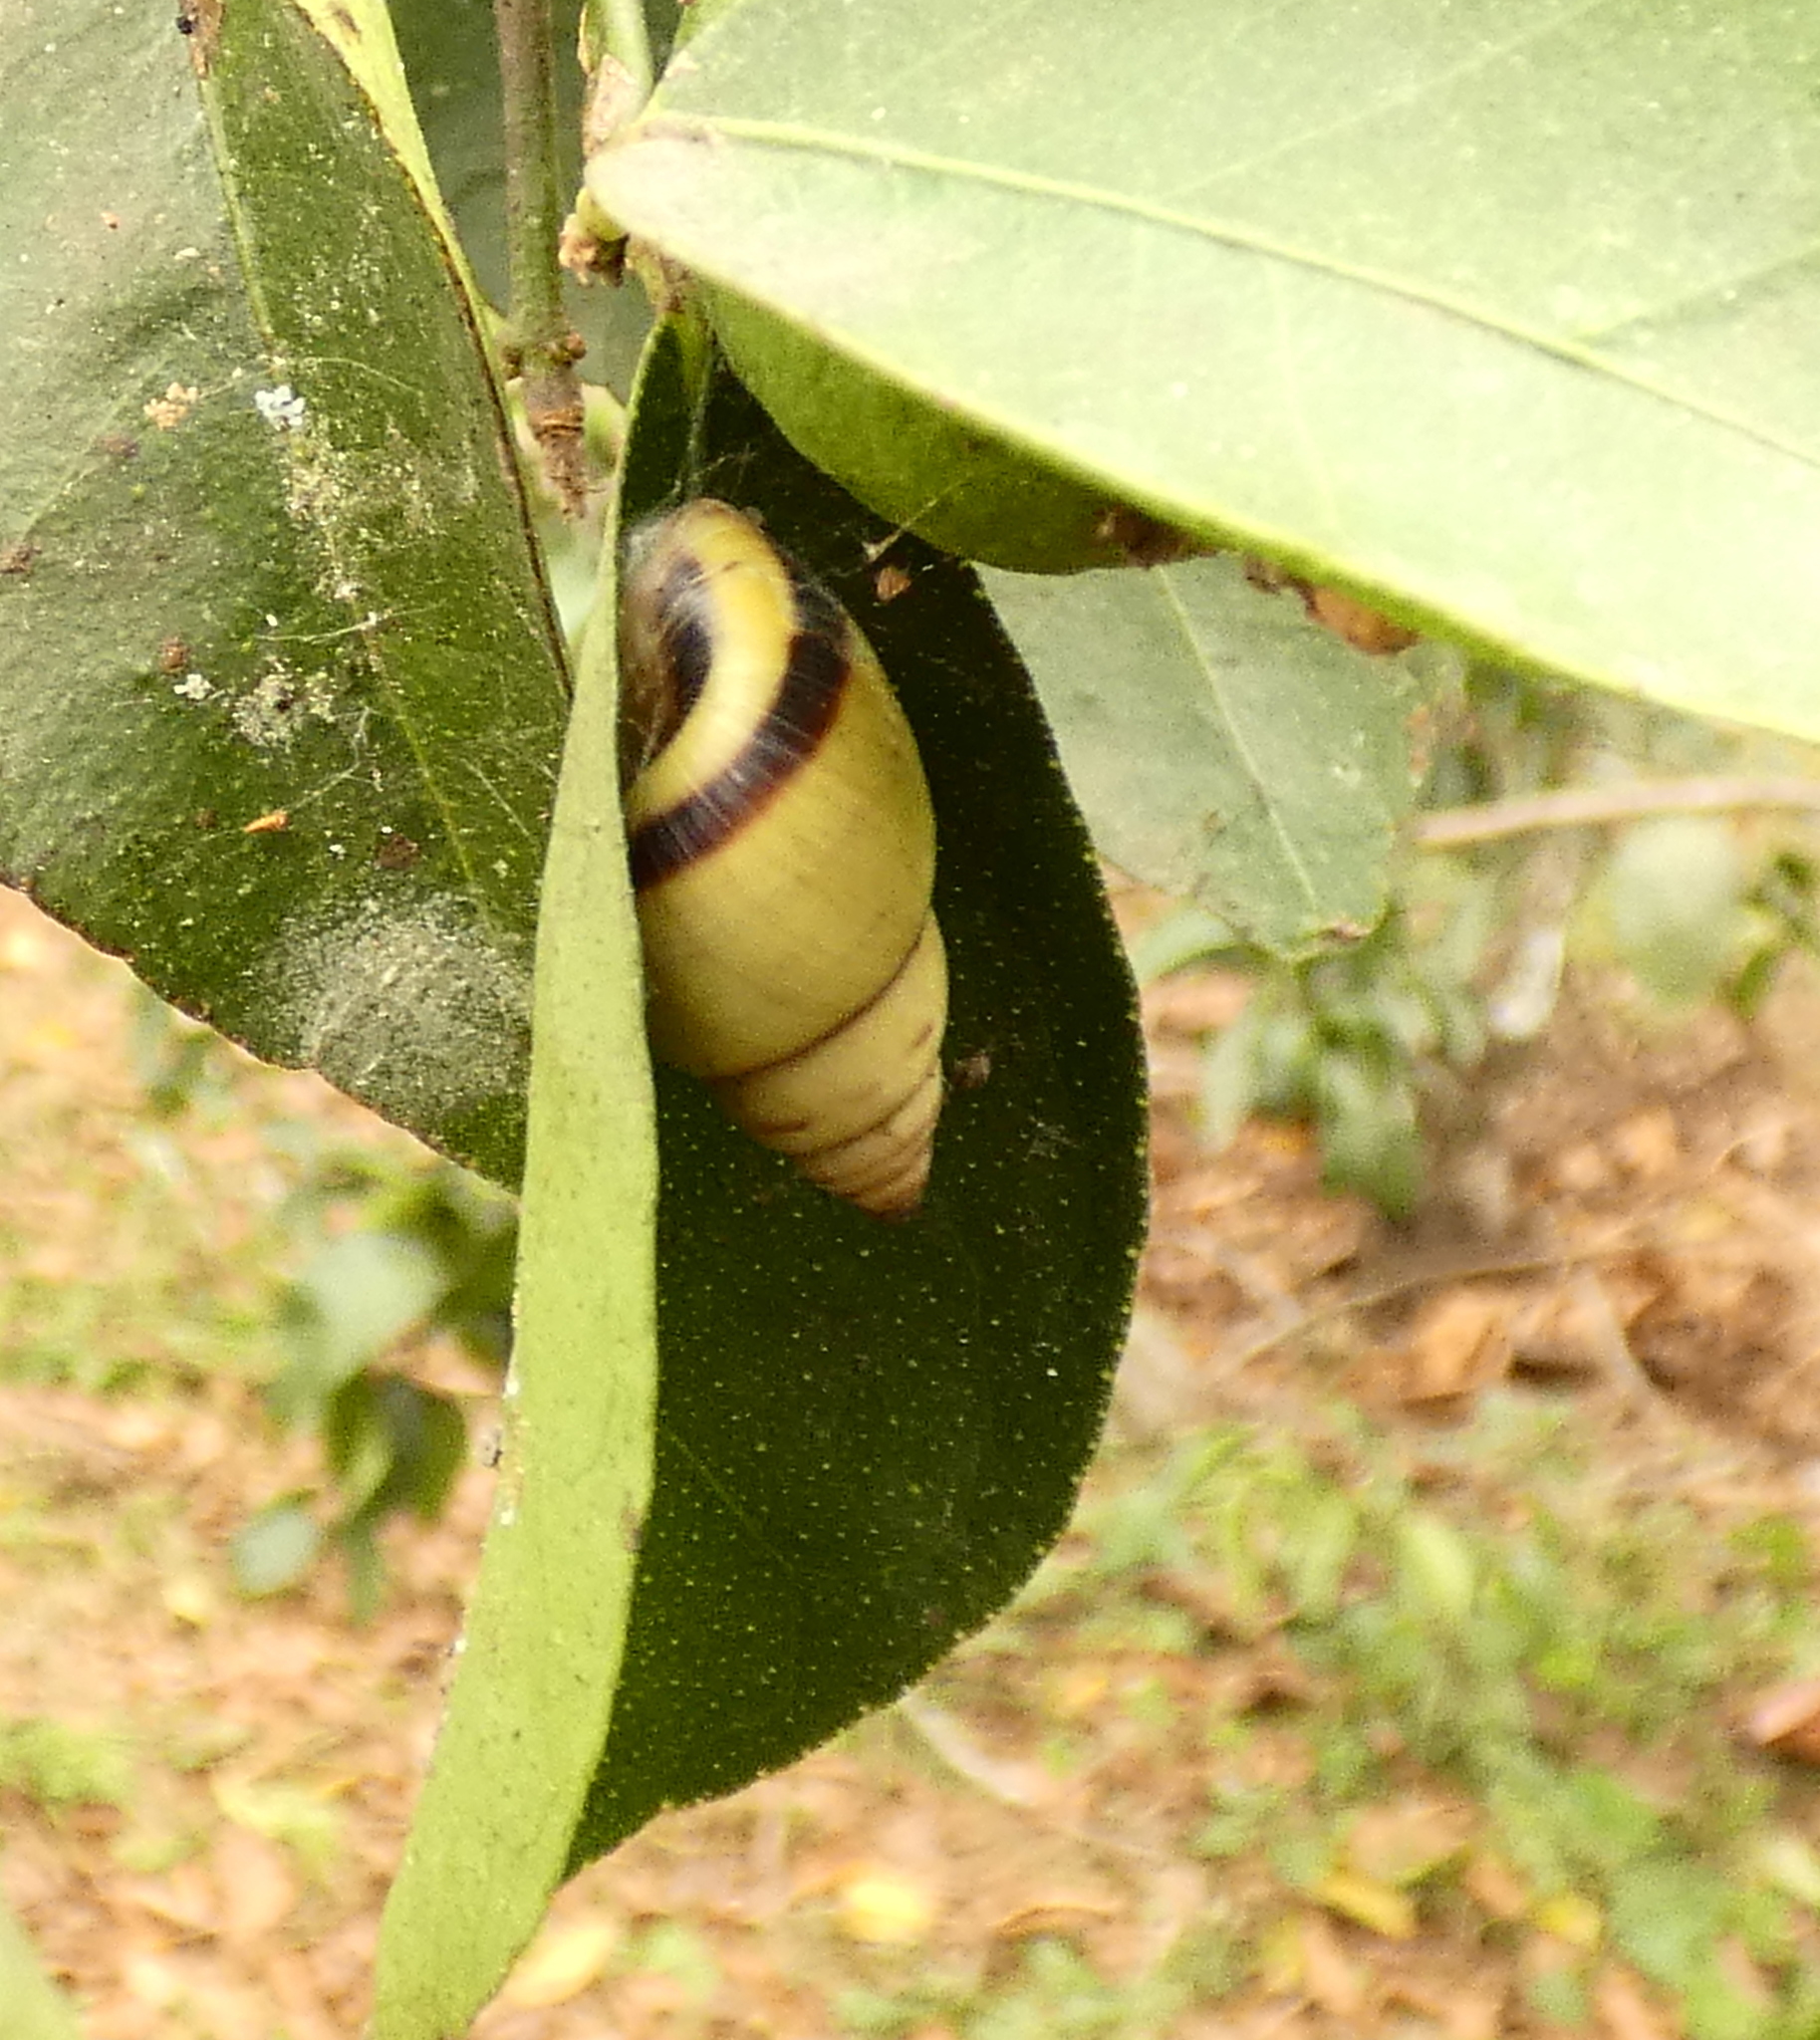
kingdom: Animalia
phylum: Mollusca
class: Gastropoda
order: Stylommatophora
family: Bulimulidae
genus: Drymaeus
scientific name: Drymaeus
